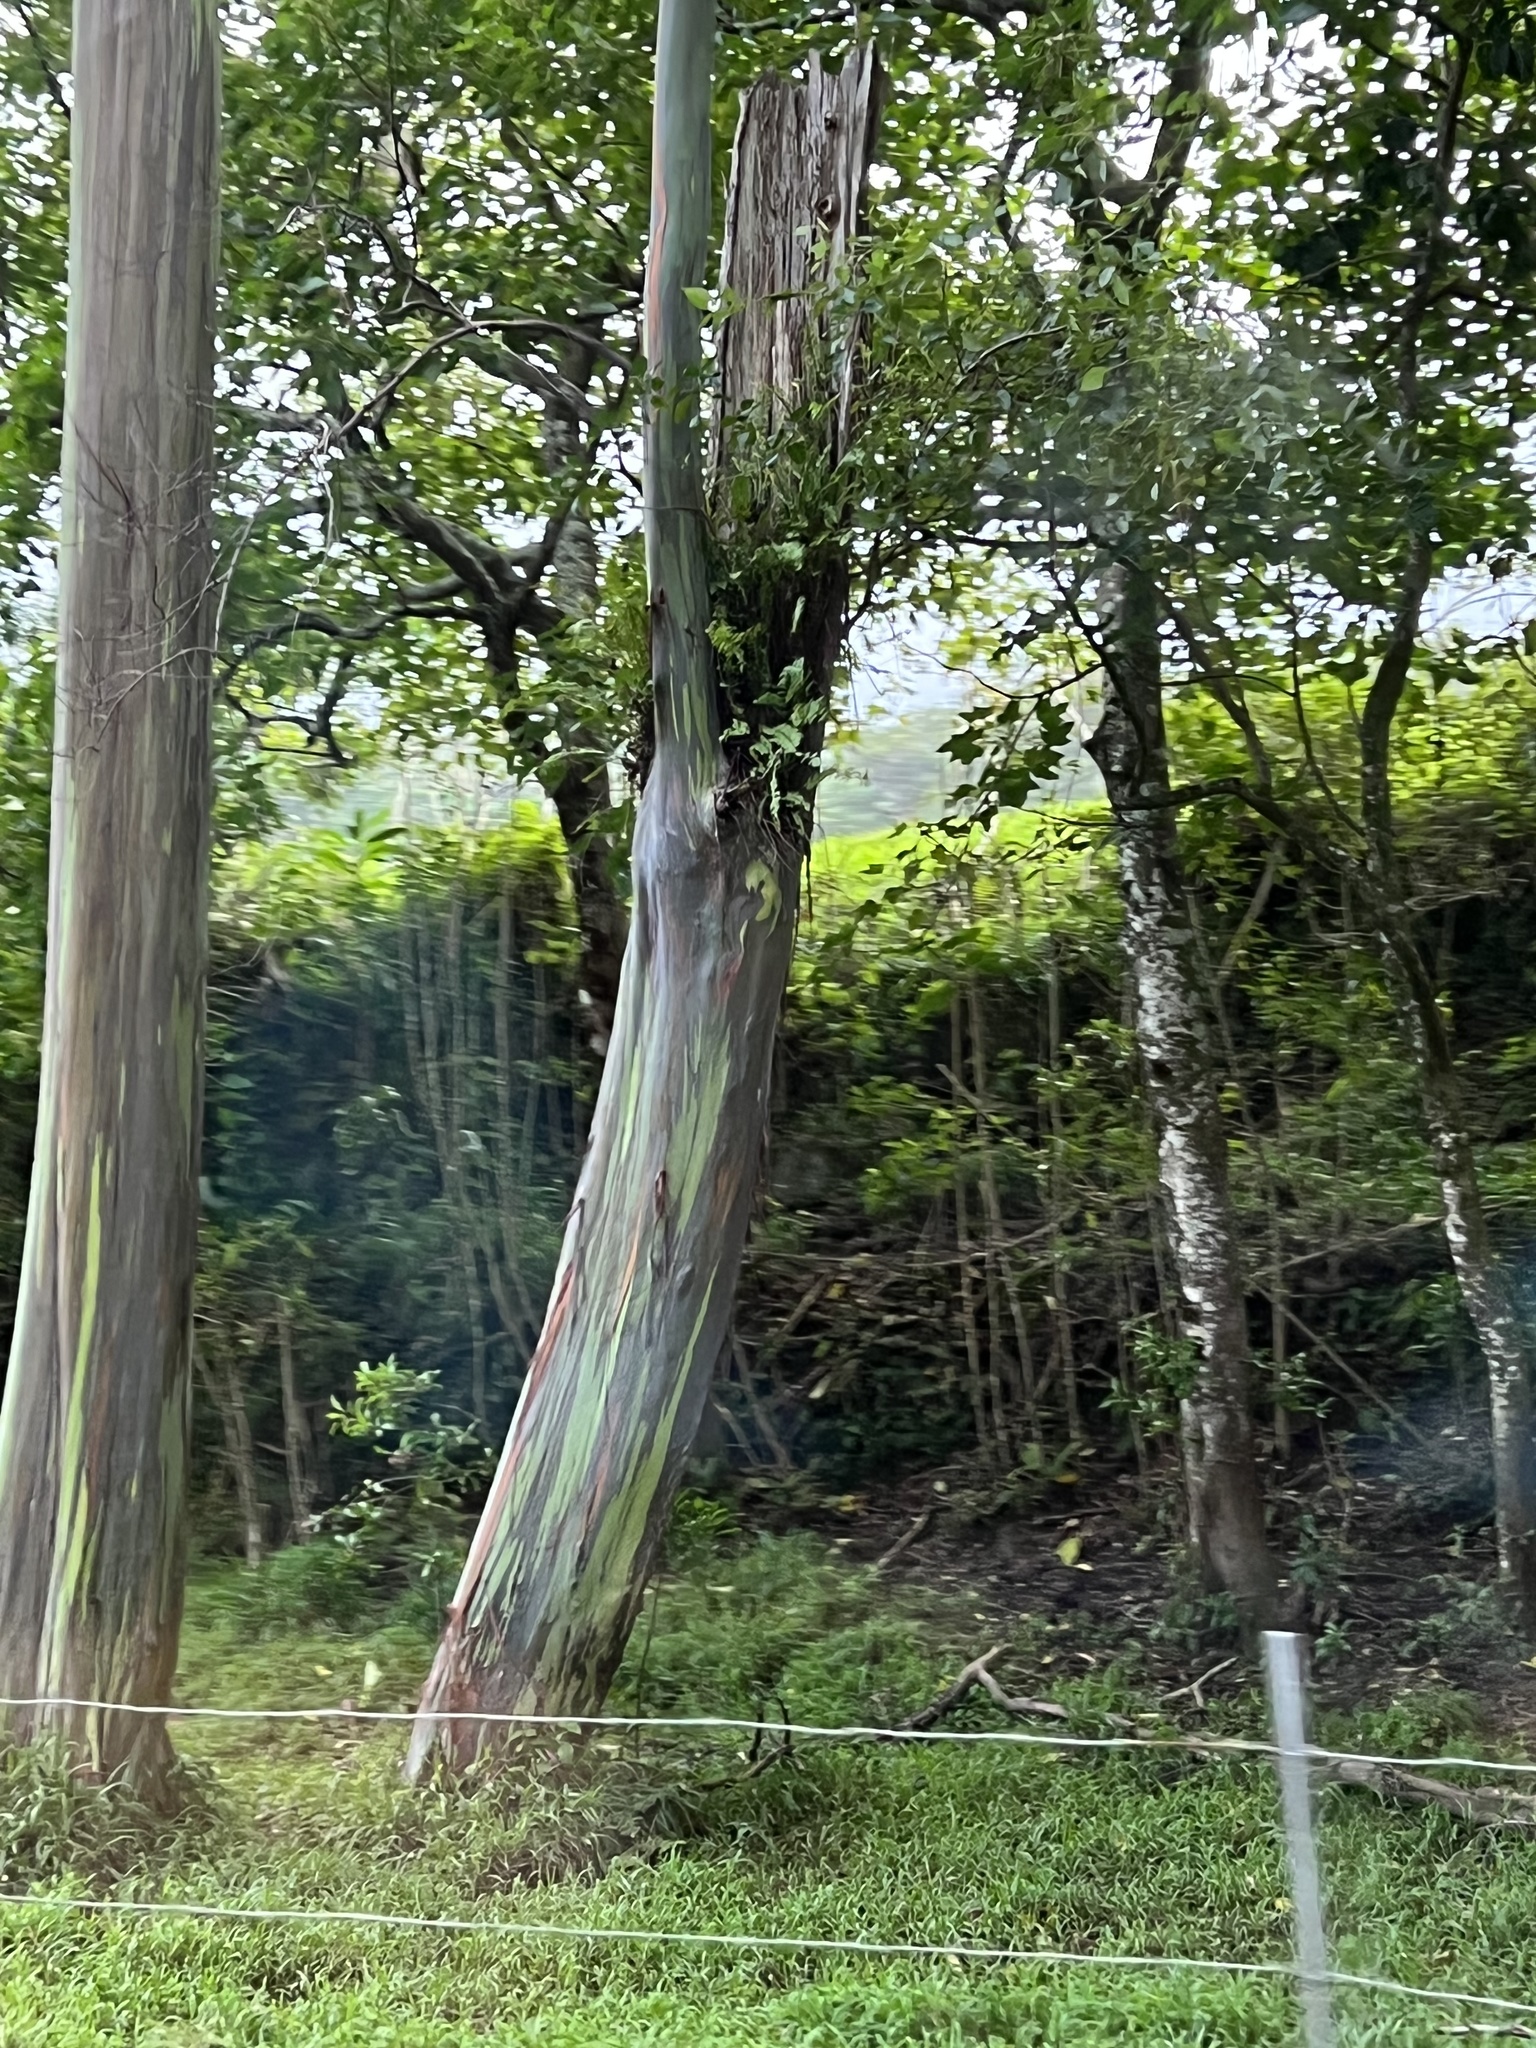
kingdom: Plantae
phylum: Tracheophyta
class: Magnoliopsida
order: Myrtales
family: Myrtaceae
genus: Eucalyptus
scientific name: Eucalyptus deglupta
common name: Mindanao gum
